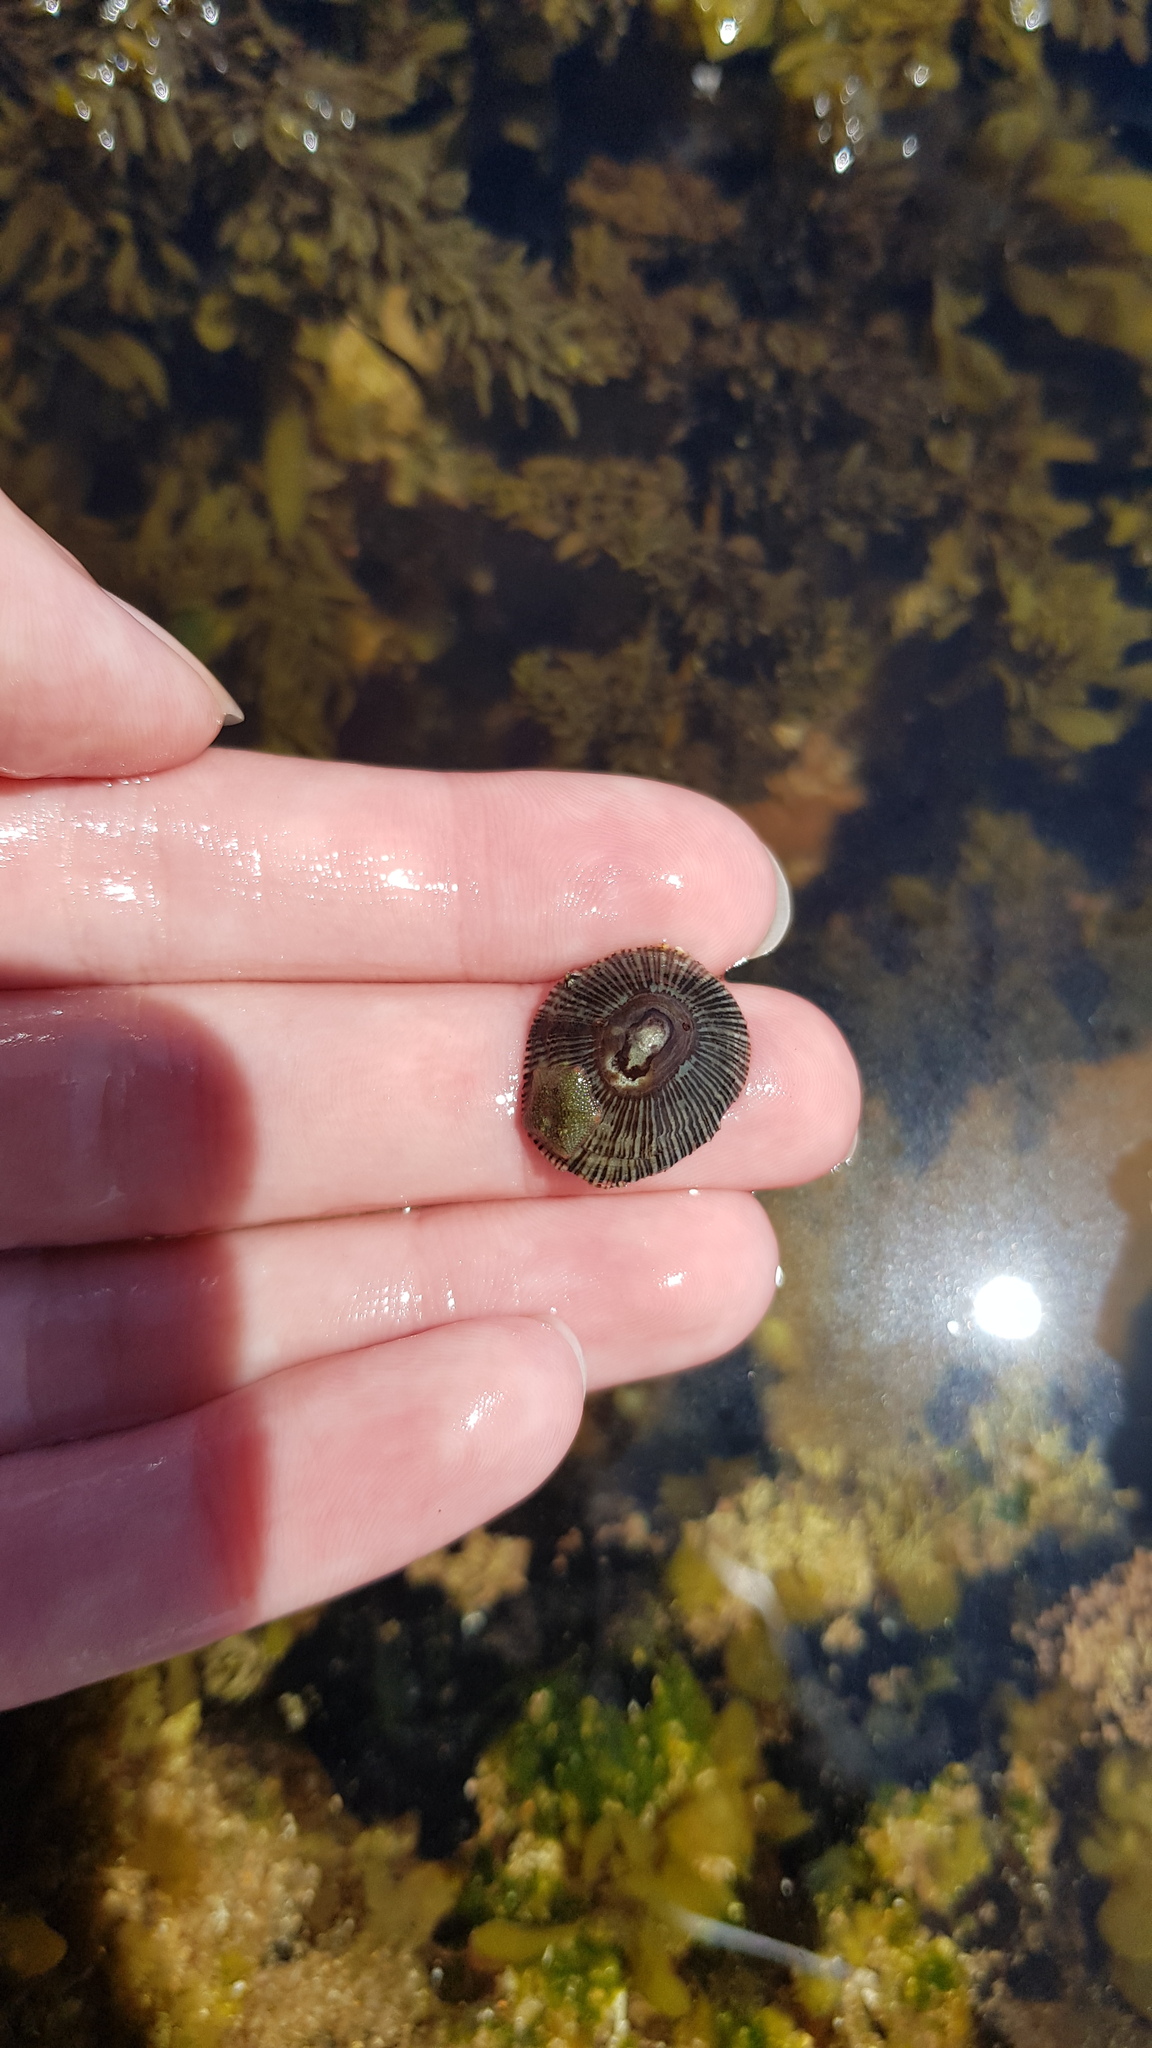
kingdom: Animalia
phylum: Mollusca
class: Gastropoda
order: Siphonariida
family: Siphonariidae
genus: Siphonaria
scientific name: Siphonaria funiculata
